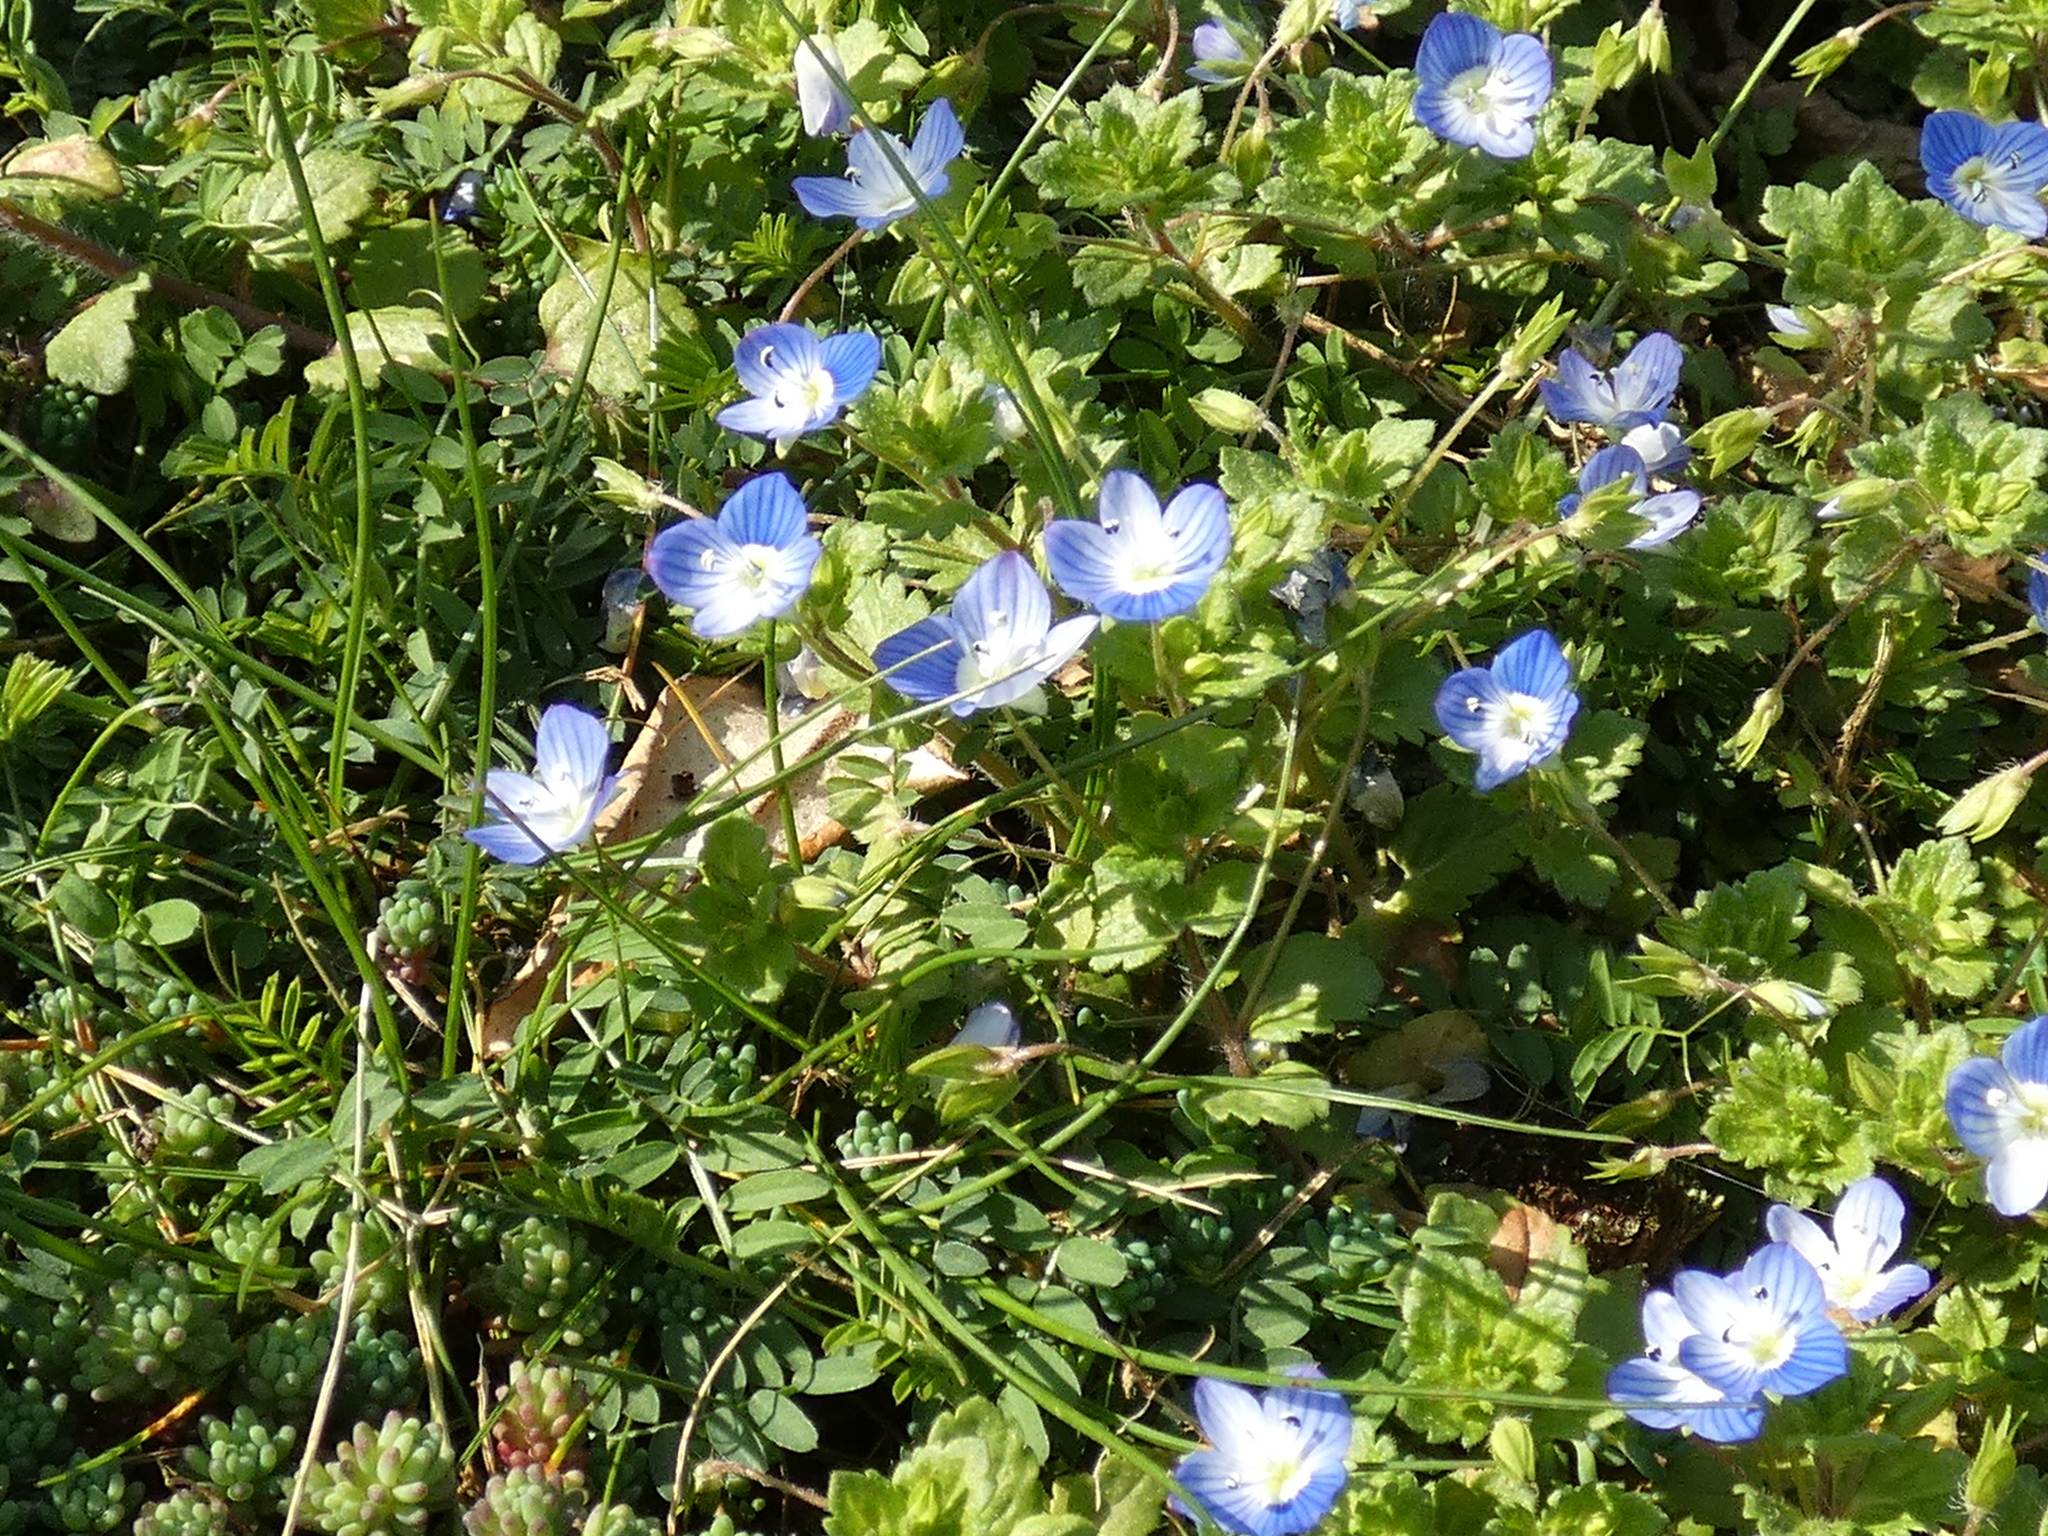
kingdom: Plantae
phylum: Tracheophyta
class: Magnoliopsida
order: Lamiales
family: Plantaginaceae
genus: Veronica
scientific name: Veronica persica
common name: Common field-speedwell
